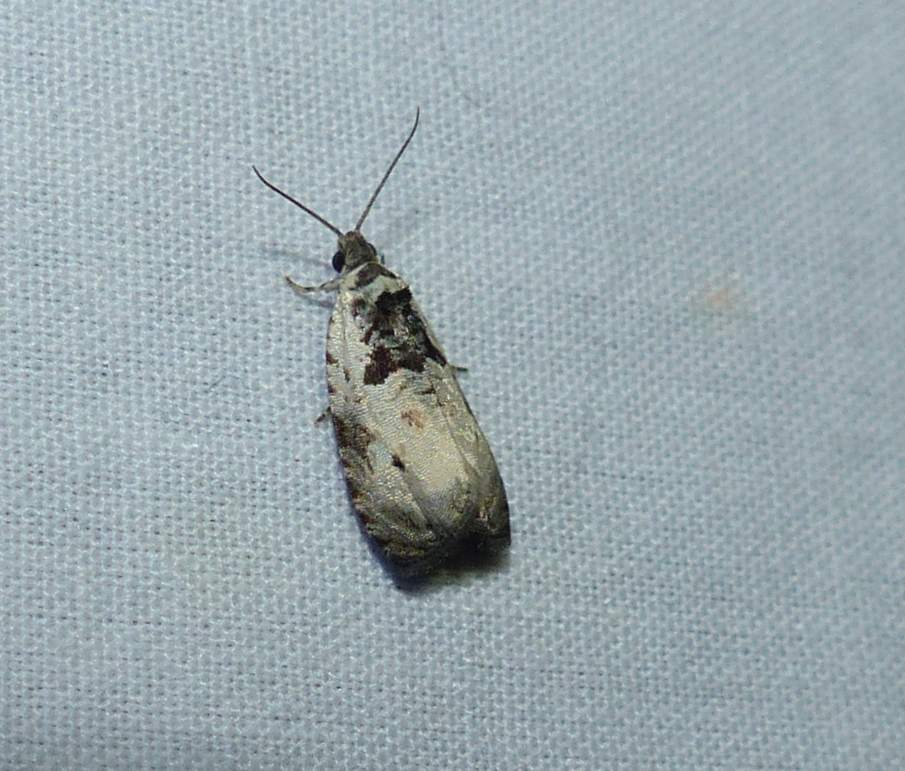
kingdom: Animalia
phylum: Arthropoda
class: Insecta
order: Lepidoptera
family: Tortricidae
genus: Olethreutes
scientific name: Olethreutes malana
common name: Malana leafroller moth
